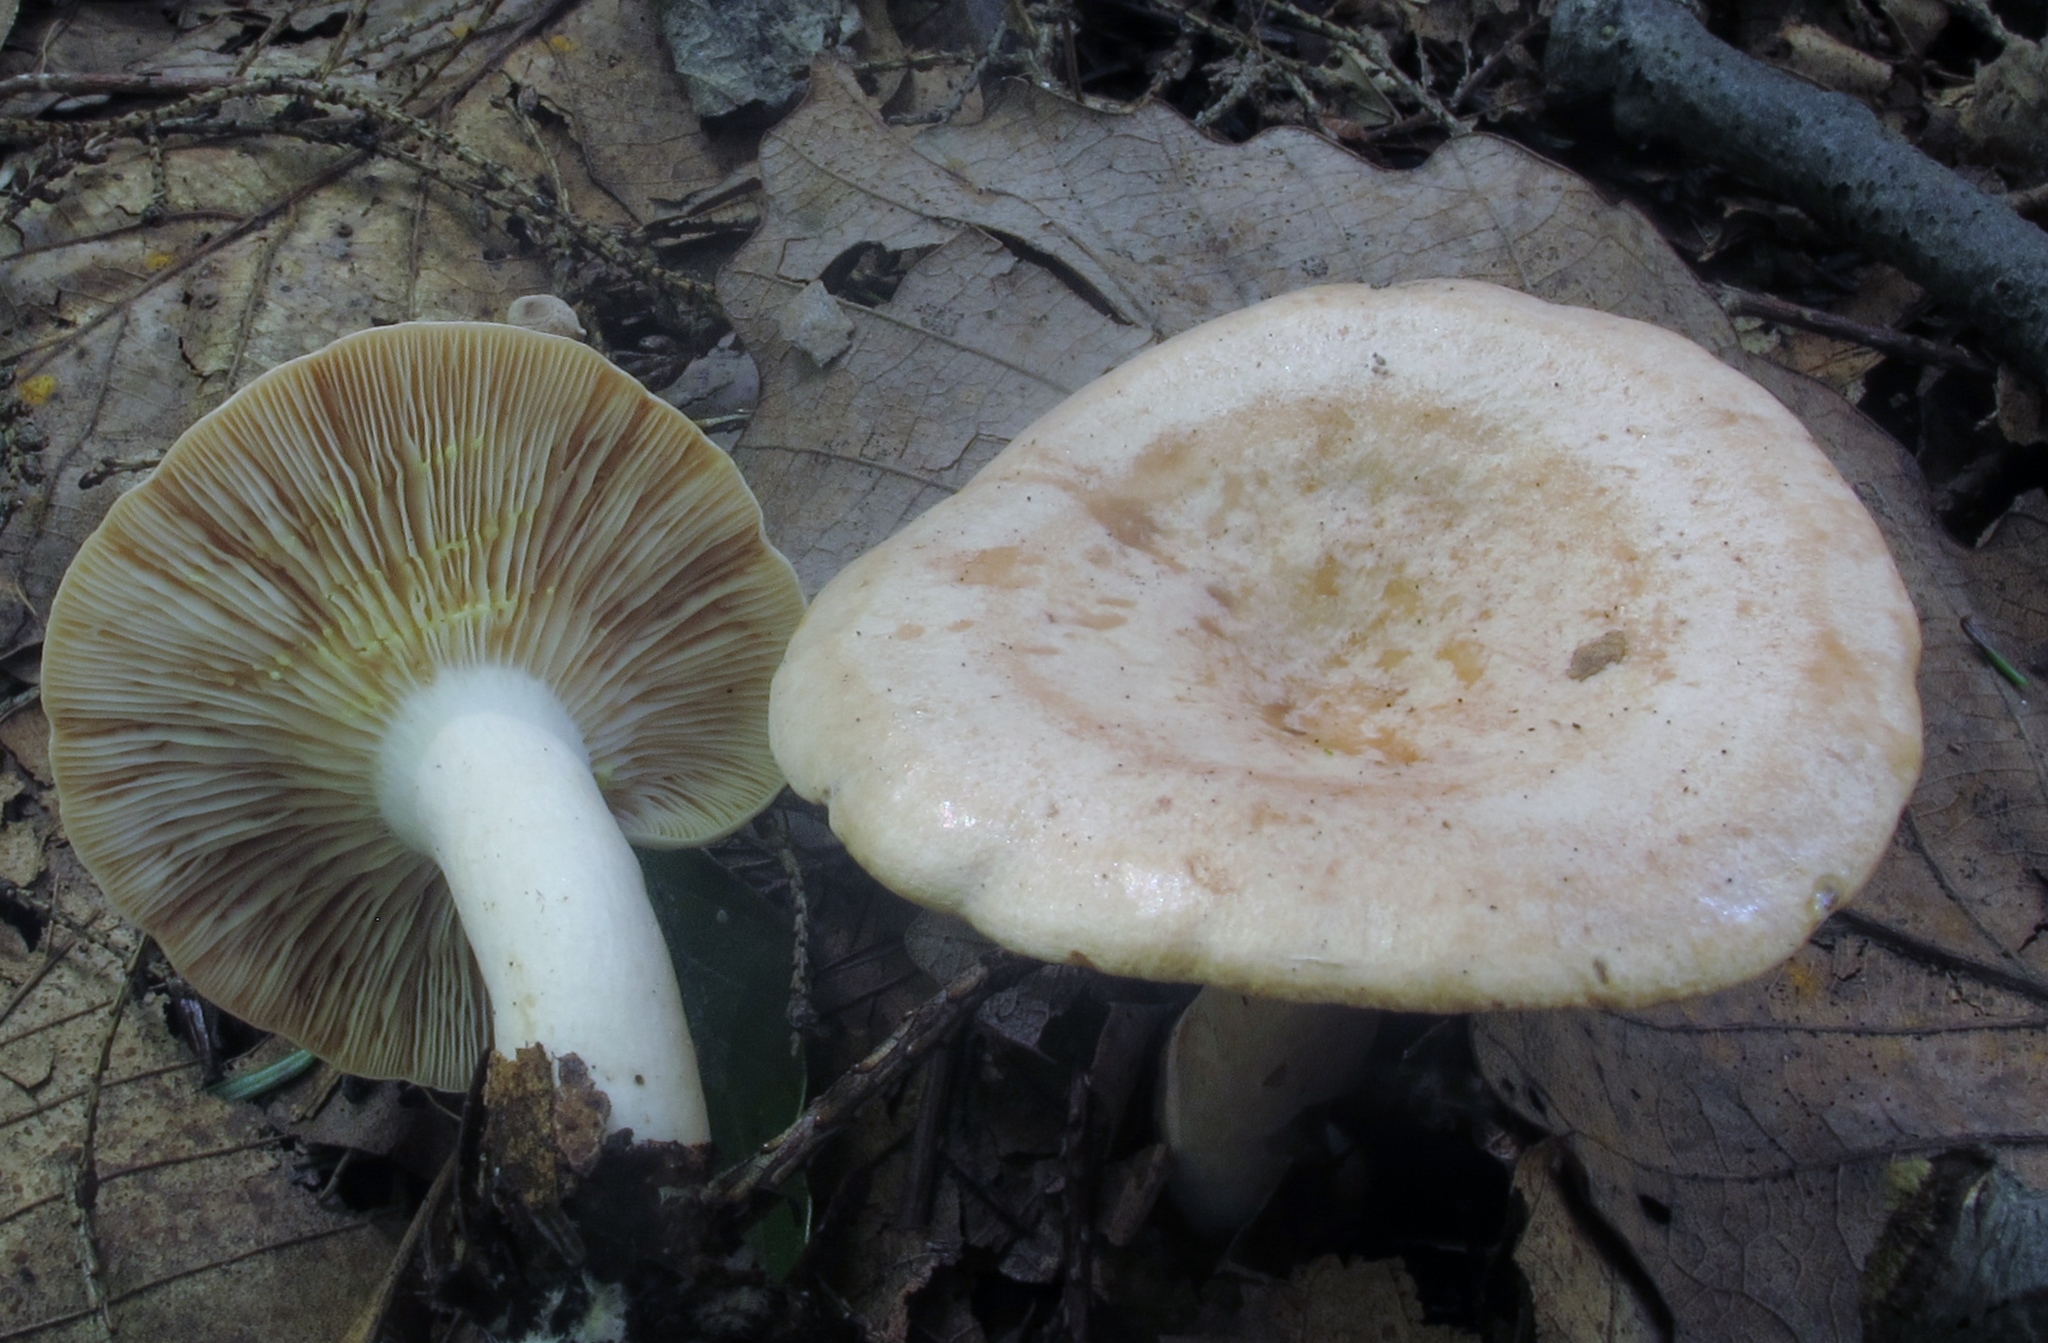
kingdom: Fungi
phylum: Basidiomycota
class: Agaricomycetes
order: Russulales
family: Russulaceae
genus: Lactarius
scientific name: Lactarius chrysorrheus
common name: Yellowdrop milkcap
